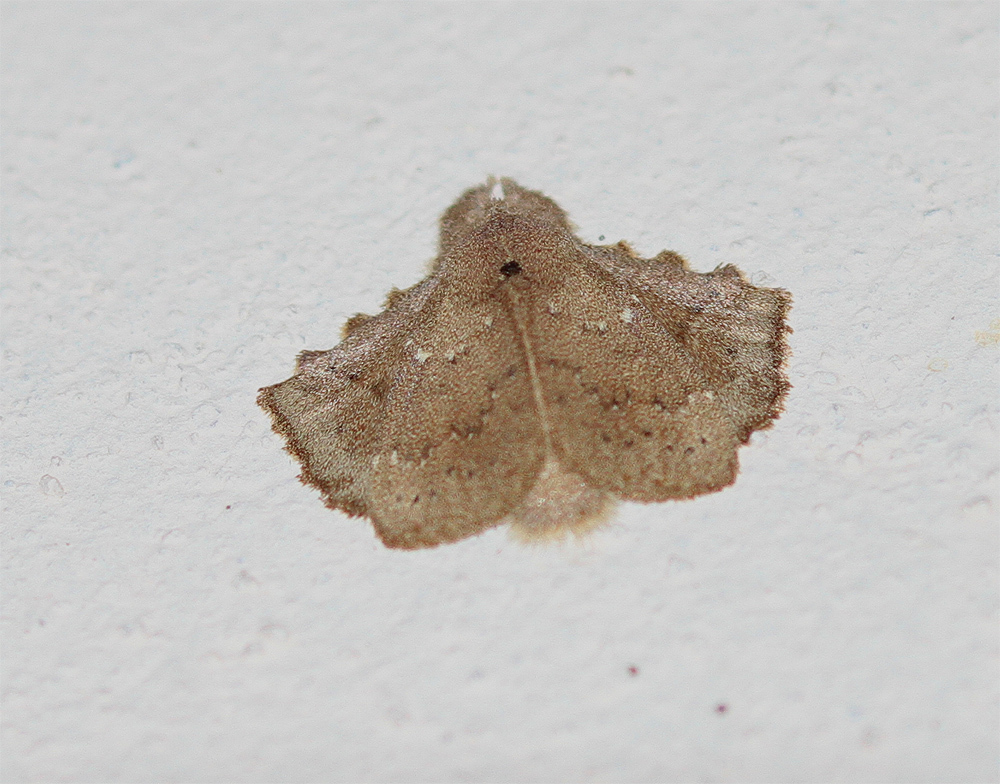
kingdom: Animalia
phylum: Arthropoda
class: Insecta
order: Lepidoptera
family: Lasiocampidae
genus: Euglyphis
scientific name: Euglyphis modesta
